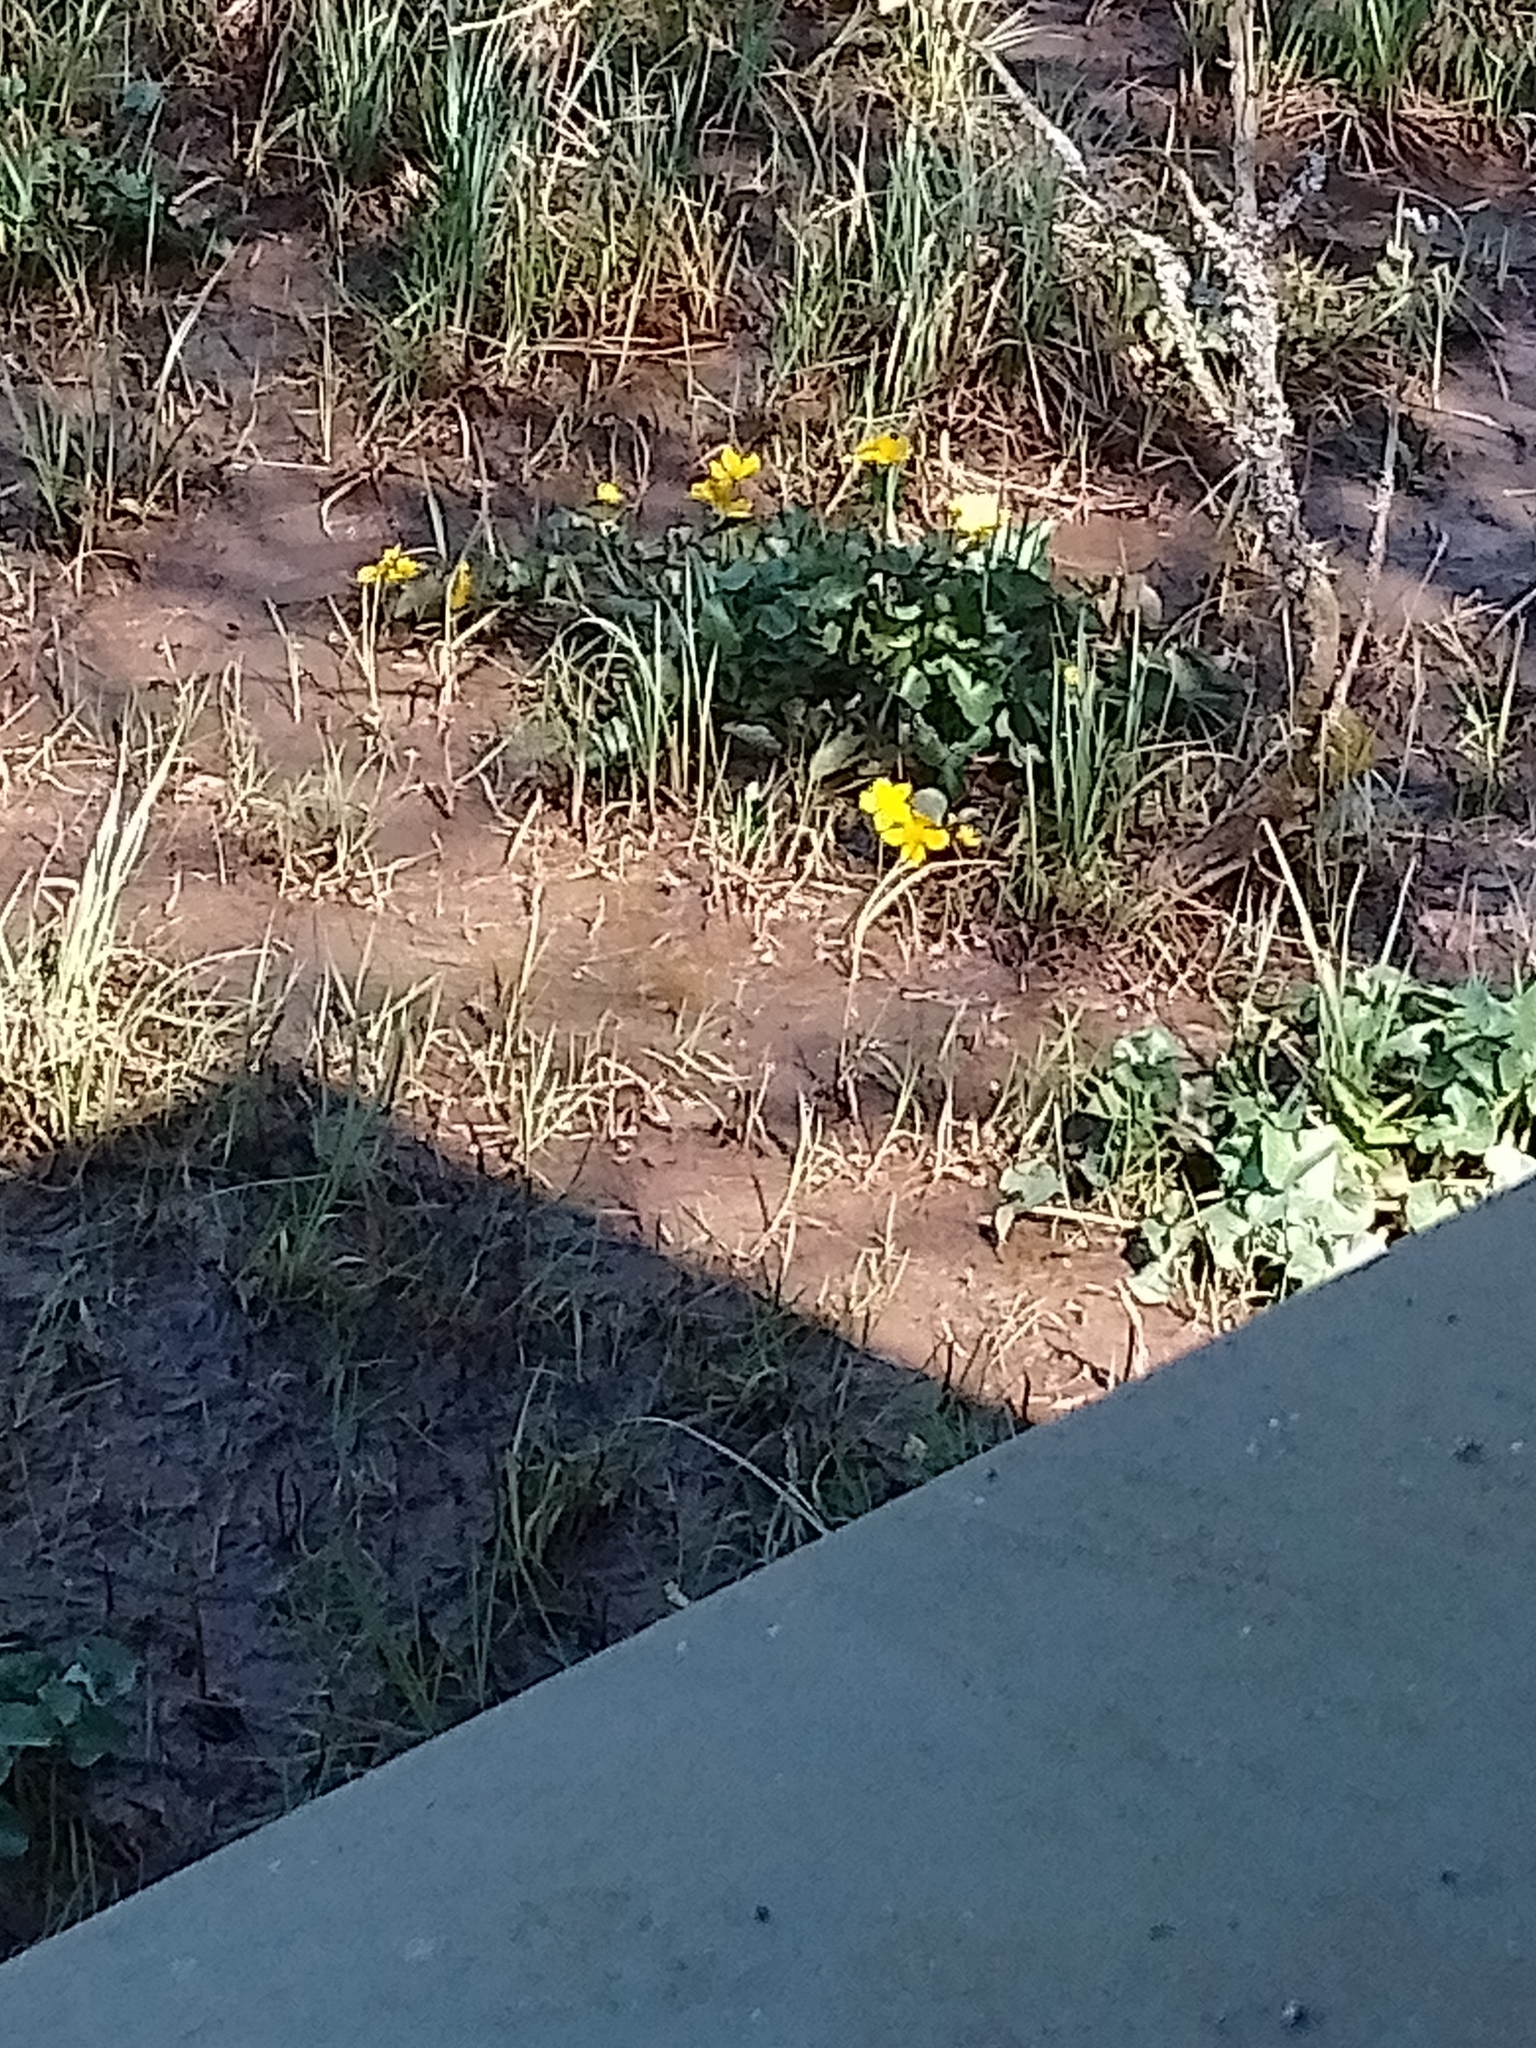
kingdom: Plantae
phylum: Tracheophyta
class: Magnoliopsida
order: Ranunculales
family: Ranunculaceae
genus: Caltha
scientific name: Caltha palustris
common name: Marsh marigold
